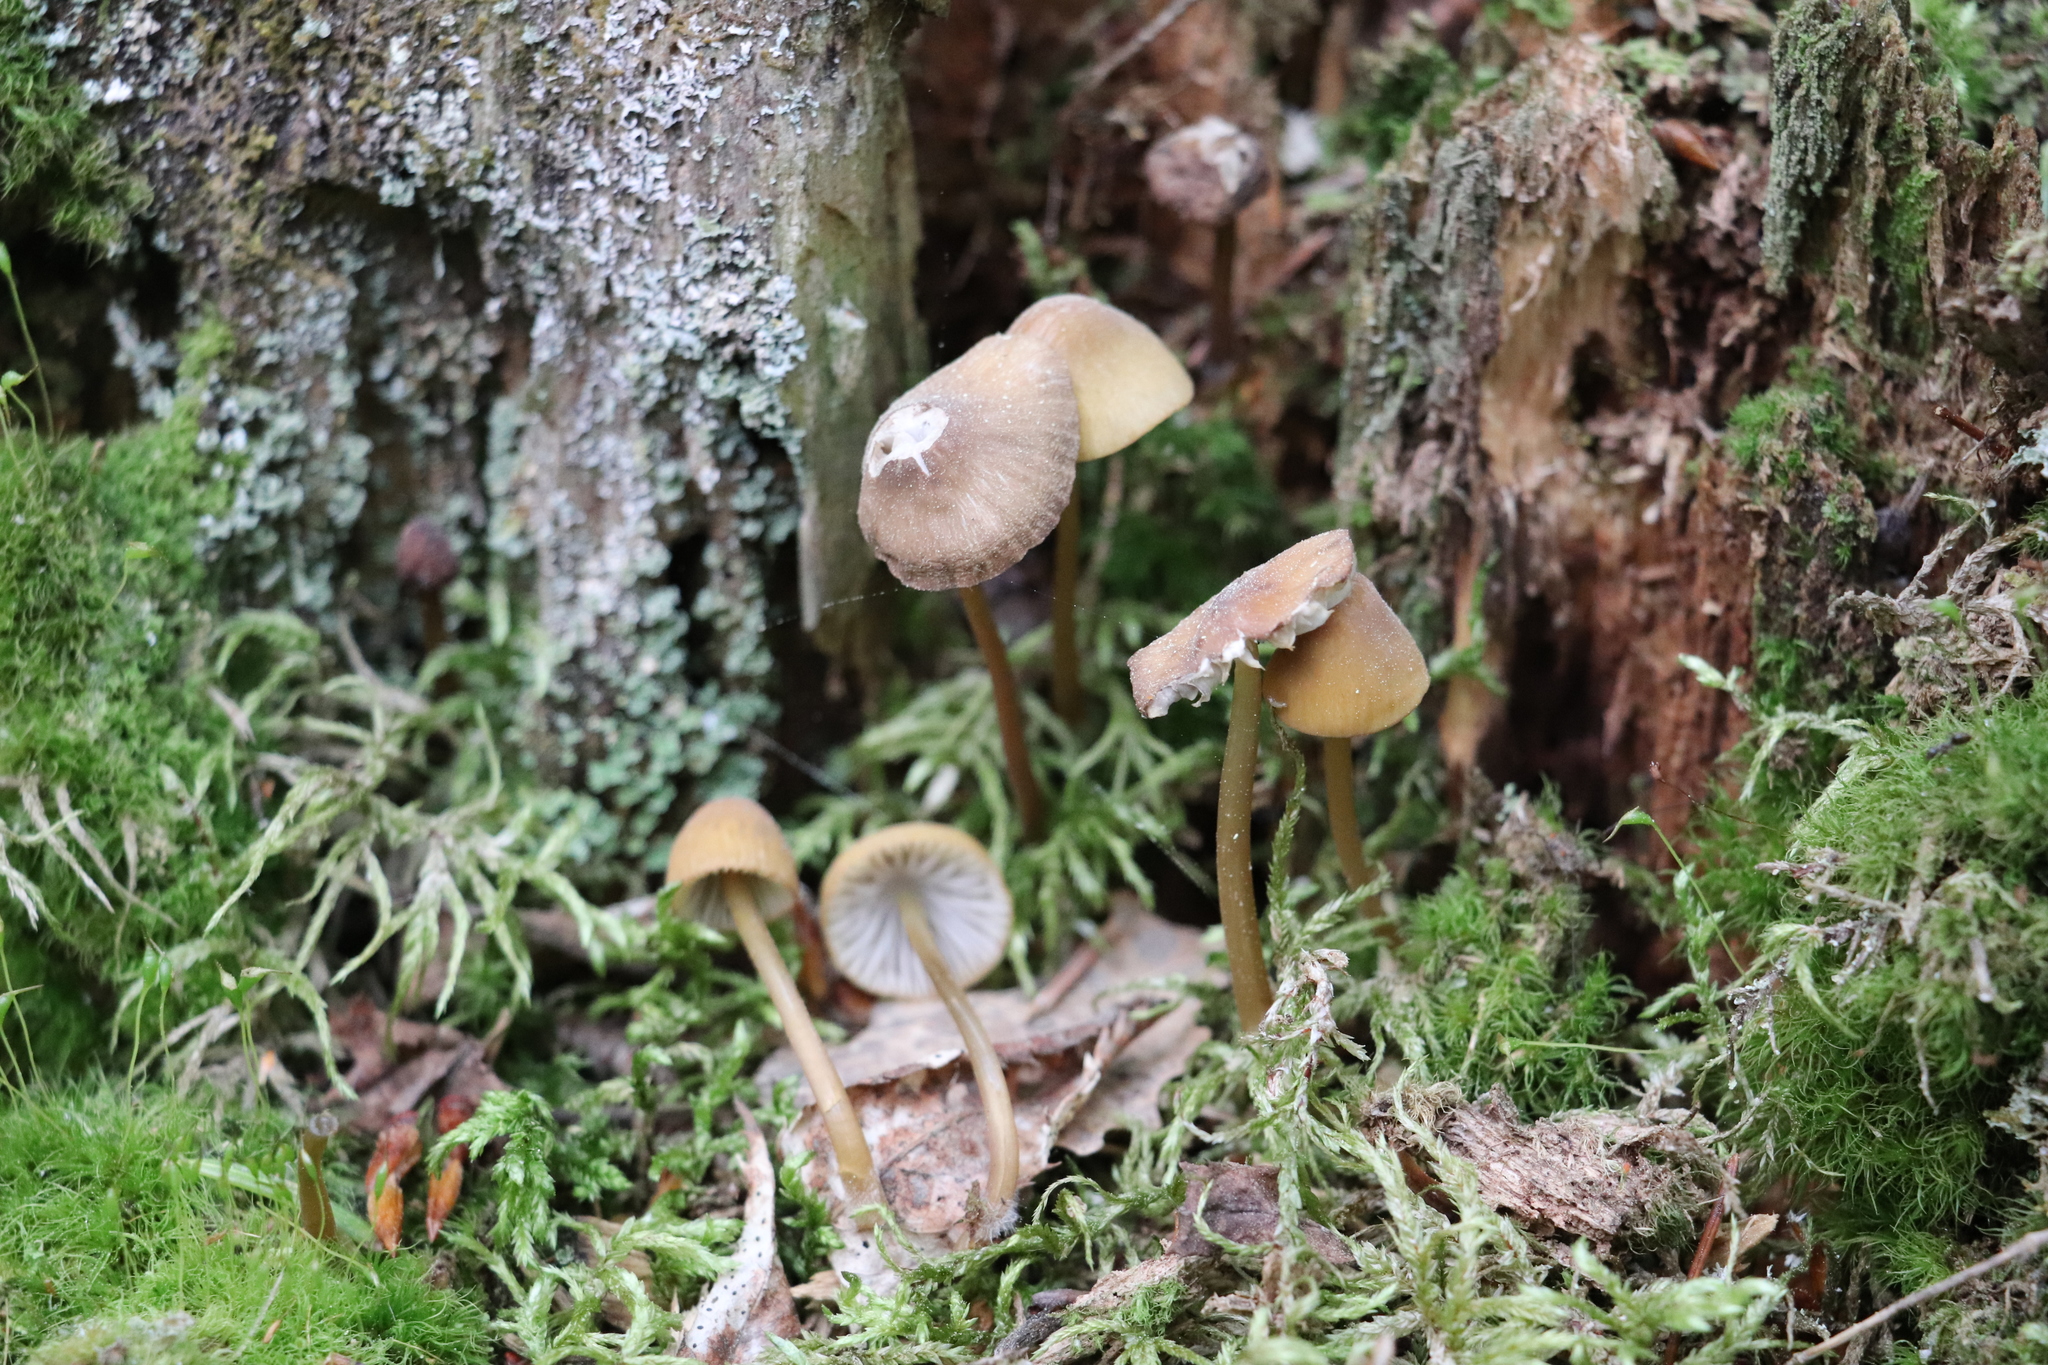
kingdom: Fungi
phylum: Basidiomycota
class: Agaricomycetes
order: Agaricales
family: Mycenaceae
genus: Mycena
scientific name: Mycena viridimarginata
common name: Olive edge bonnet
